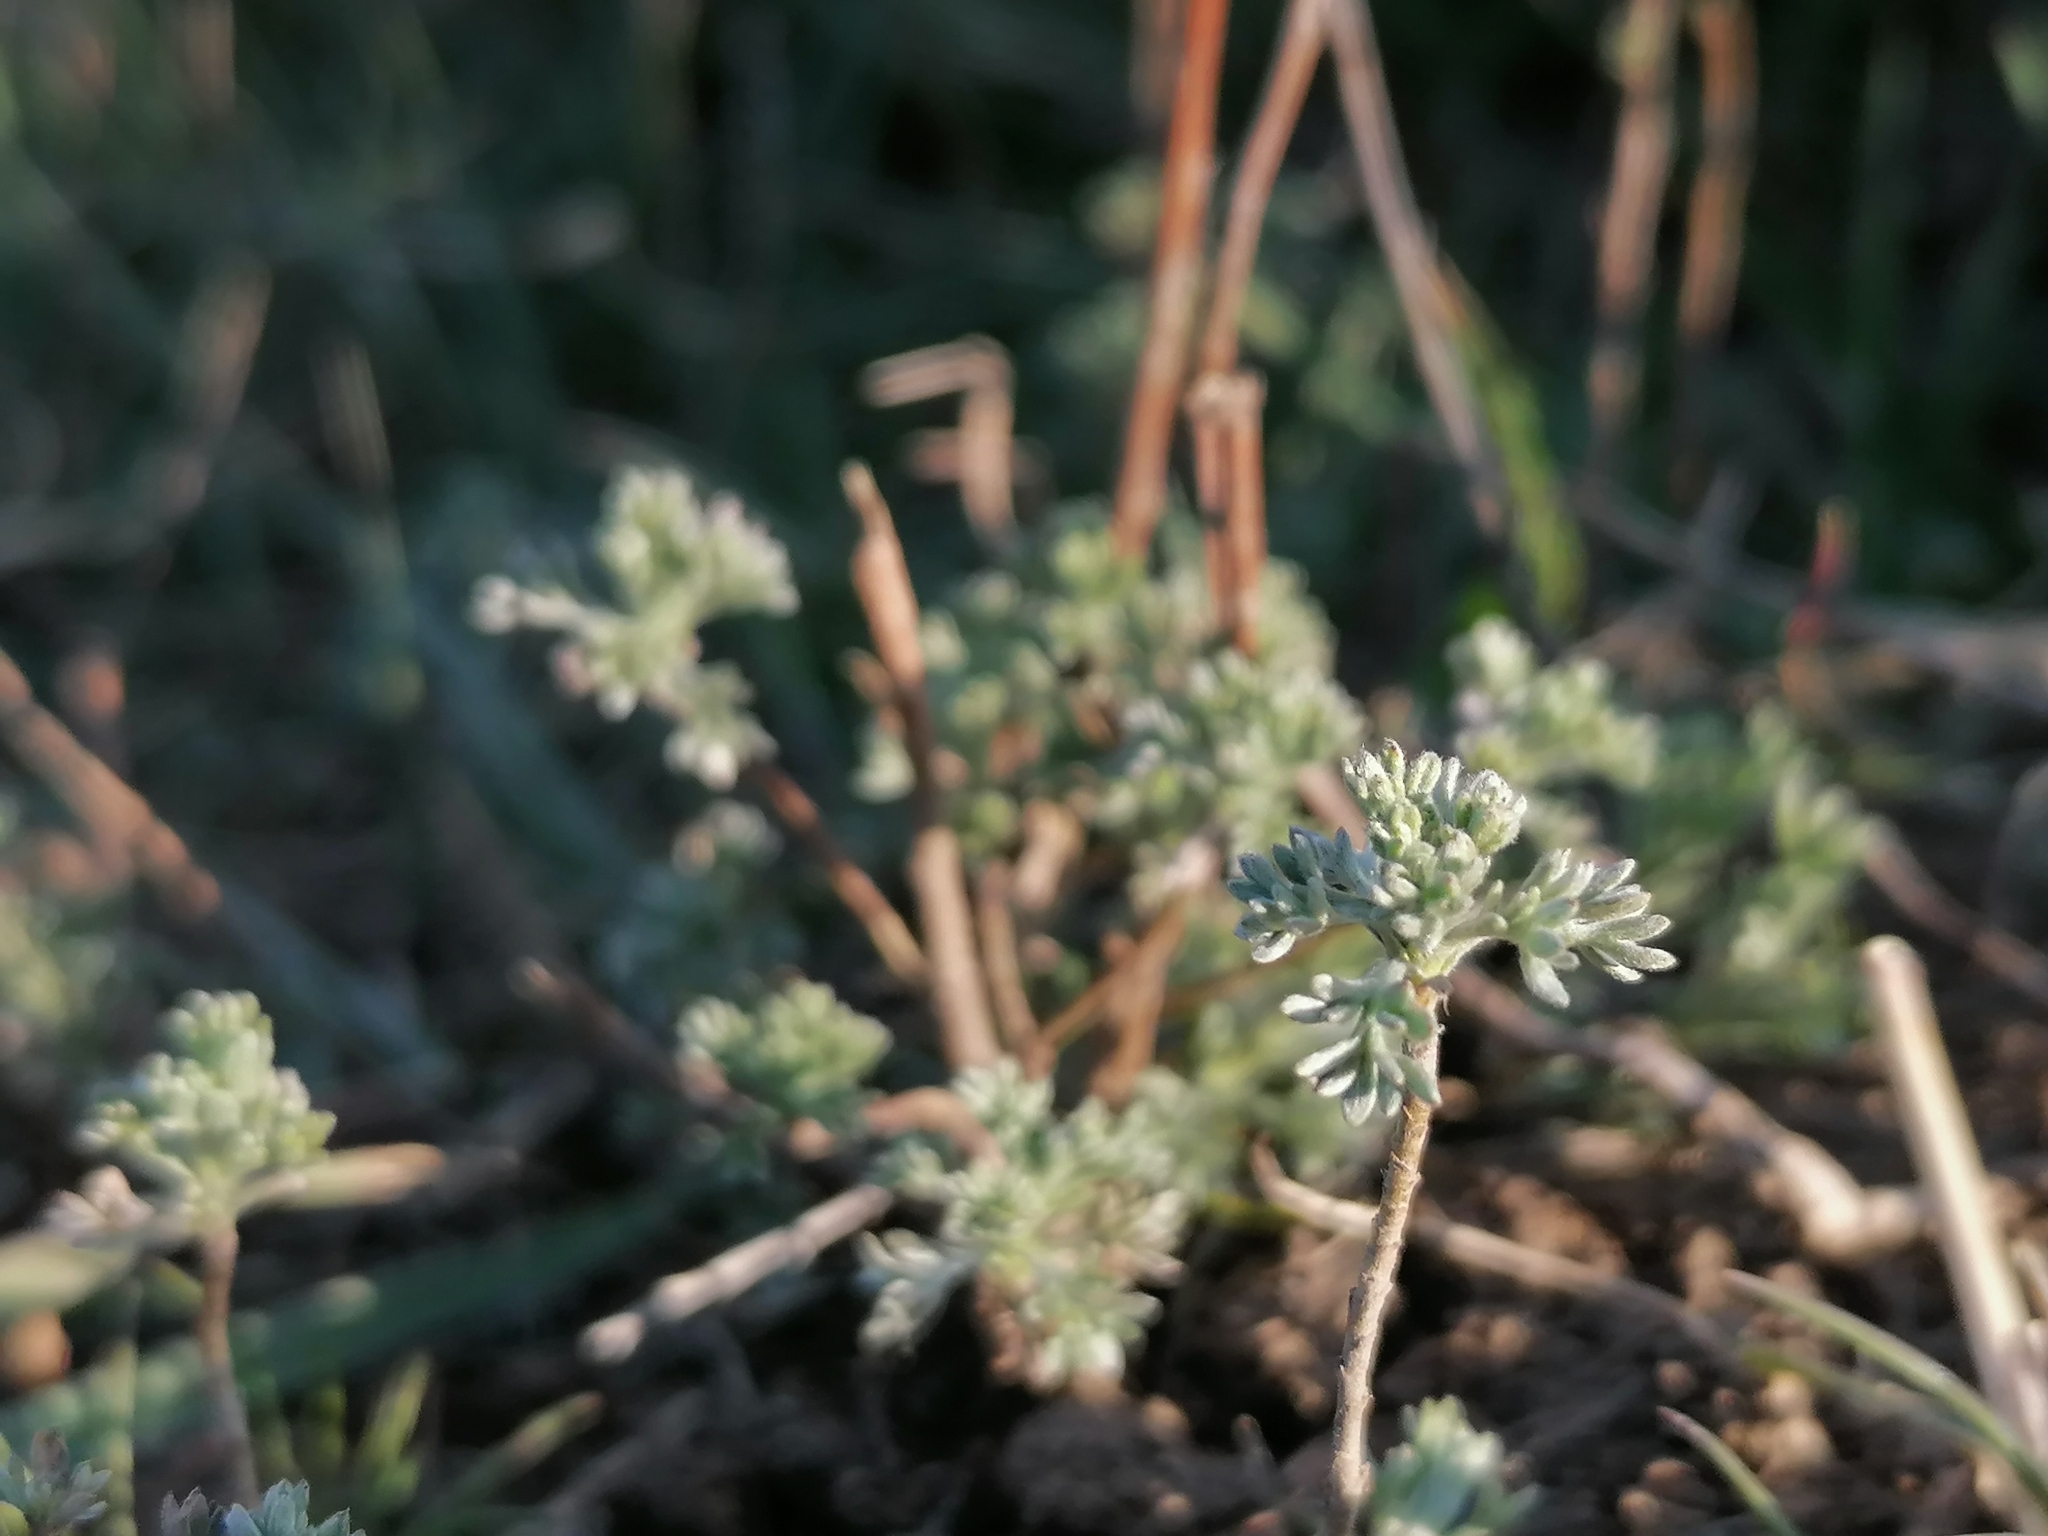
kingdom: Plantae
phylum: Tracheophyta
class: Magnoliopsida
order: Asterales
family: Asteraceae
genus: Artemisia
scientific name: Artemisia absinthium
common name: Wormwood
